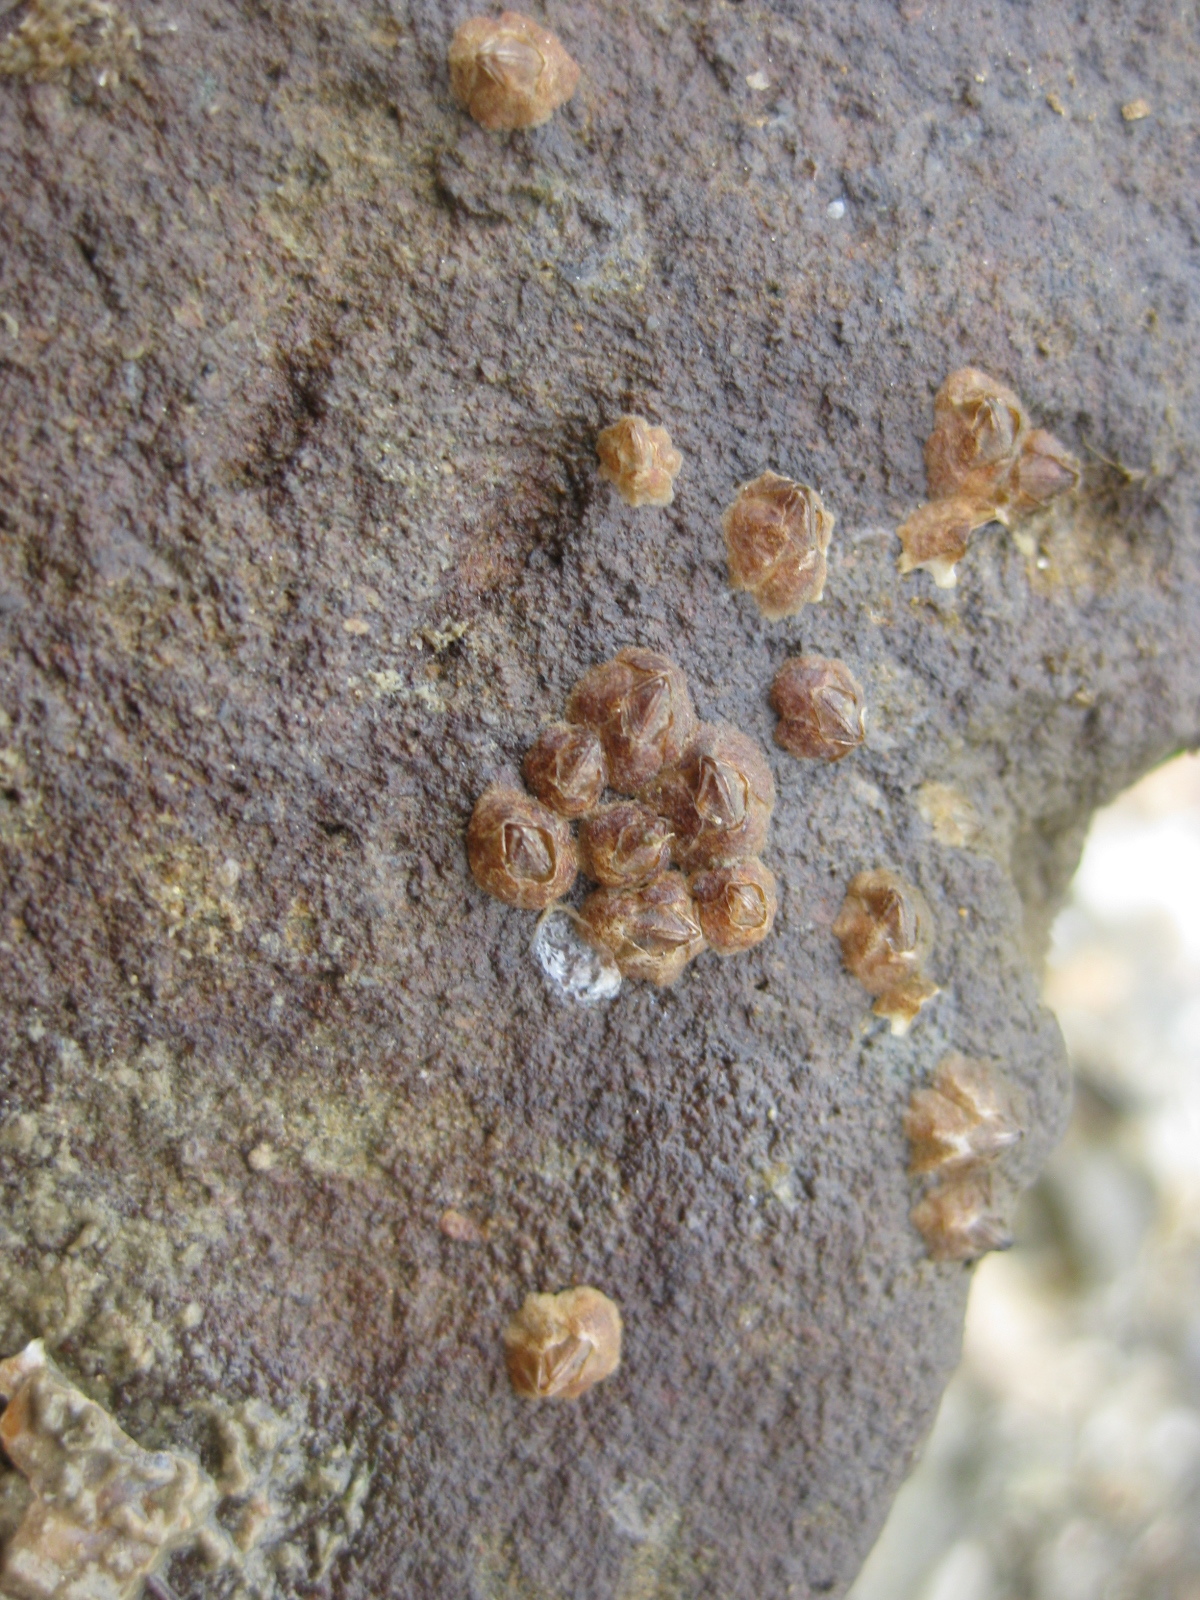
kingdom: Animalia
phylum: Arthropoda
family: Elminiidae
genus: Austrominius
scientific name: Austrominius modestus
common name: Australasian barnacle
